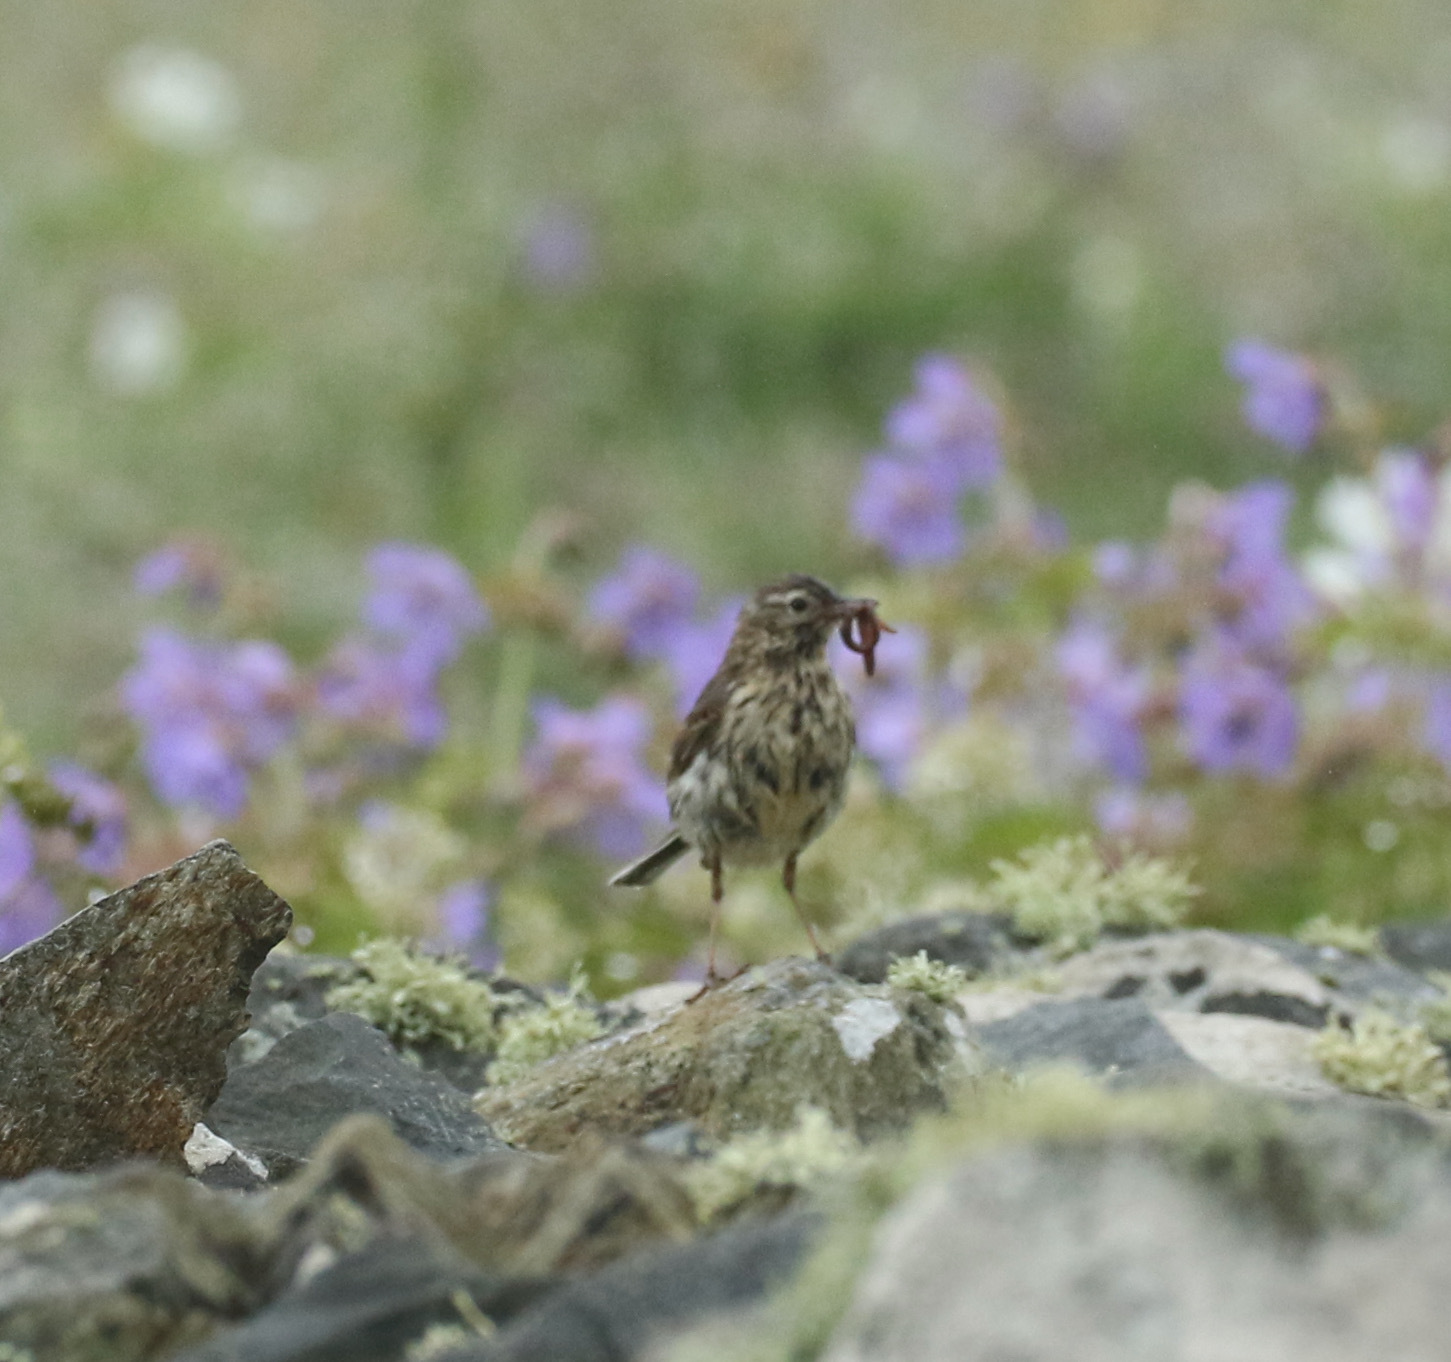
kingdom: Animalia
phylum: Chordata
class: Aves
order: Passeriformes
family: Motacillidae
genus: Anthus
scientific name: Anthus pratensis
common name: Meadow pipit
